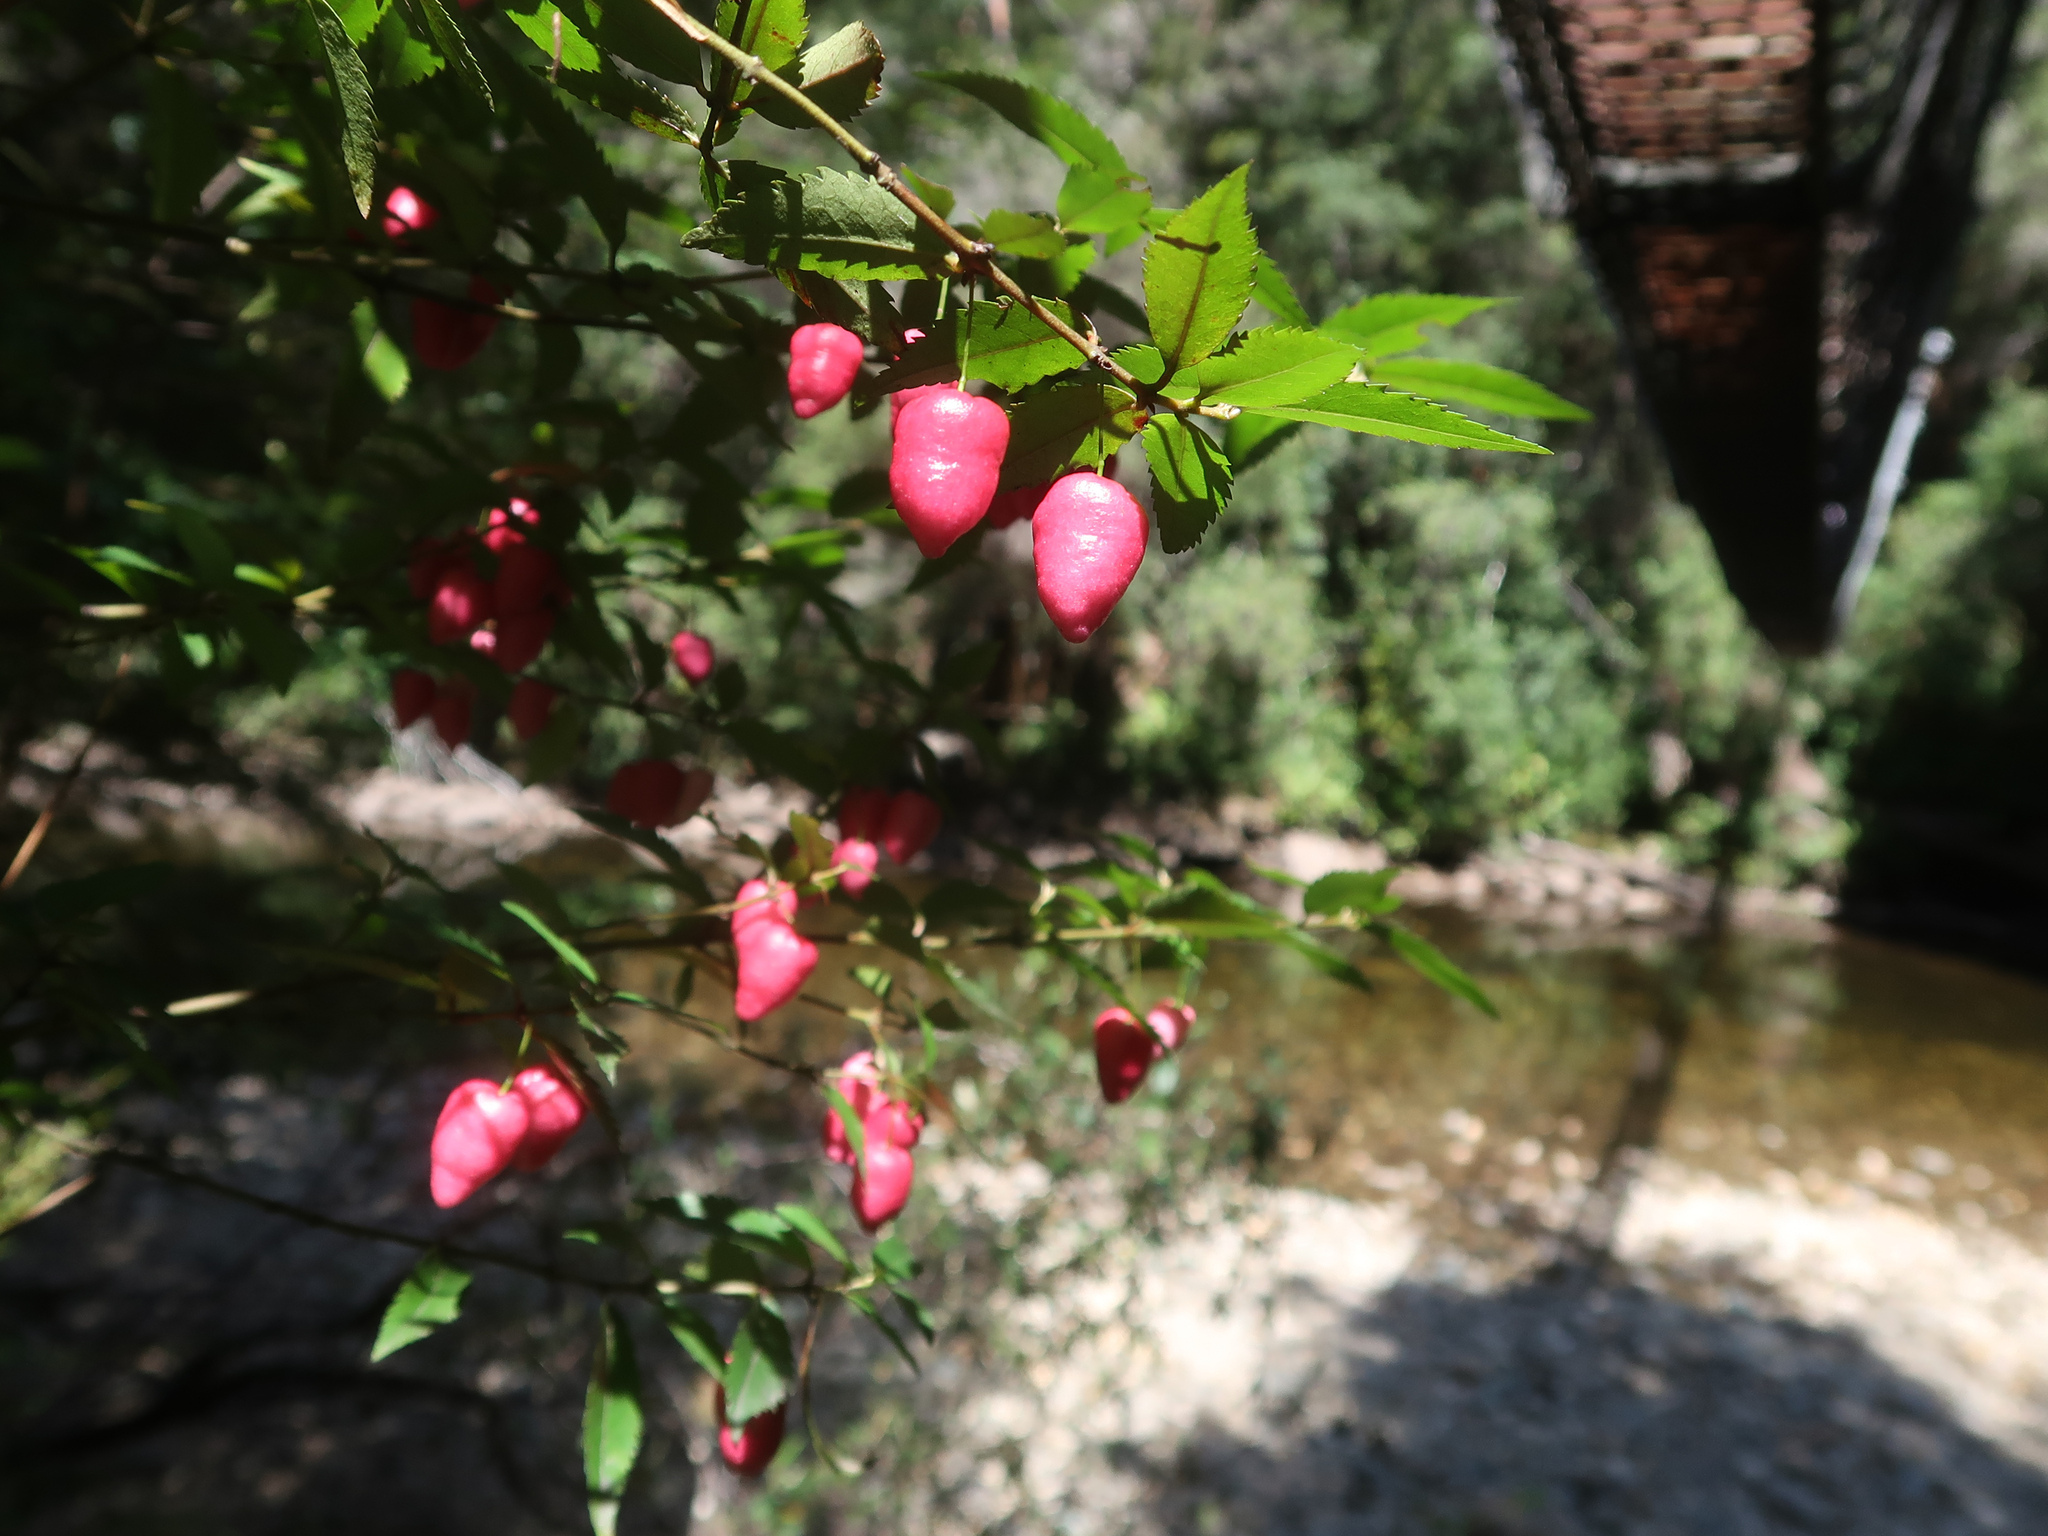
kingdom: Plantae
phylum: Tracheophyta
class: Magnoliopsida
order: Oxalidales
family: Elaeocarpaceae
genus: Aristotelia
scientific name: Aristotelia peduncularis
